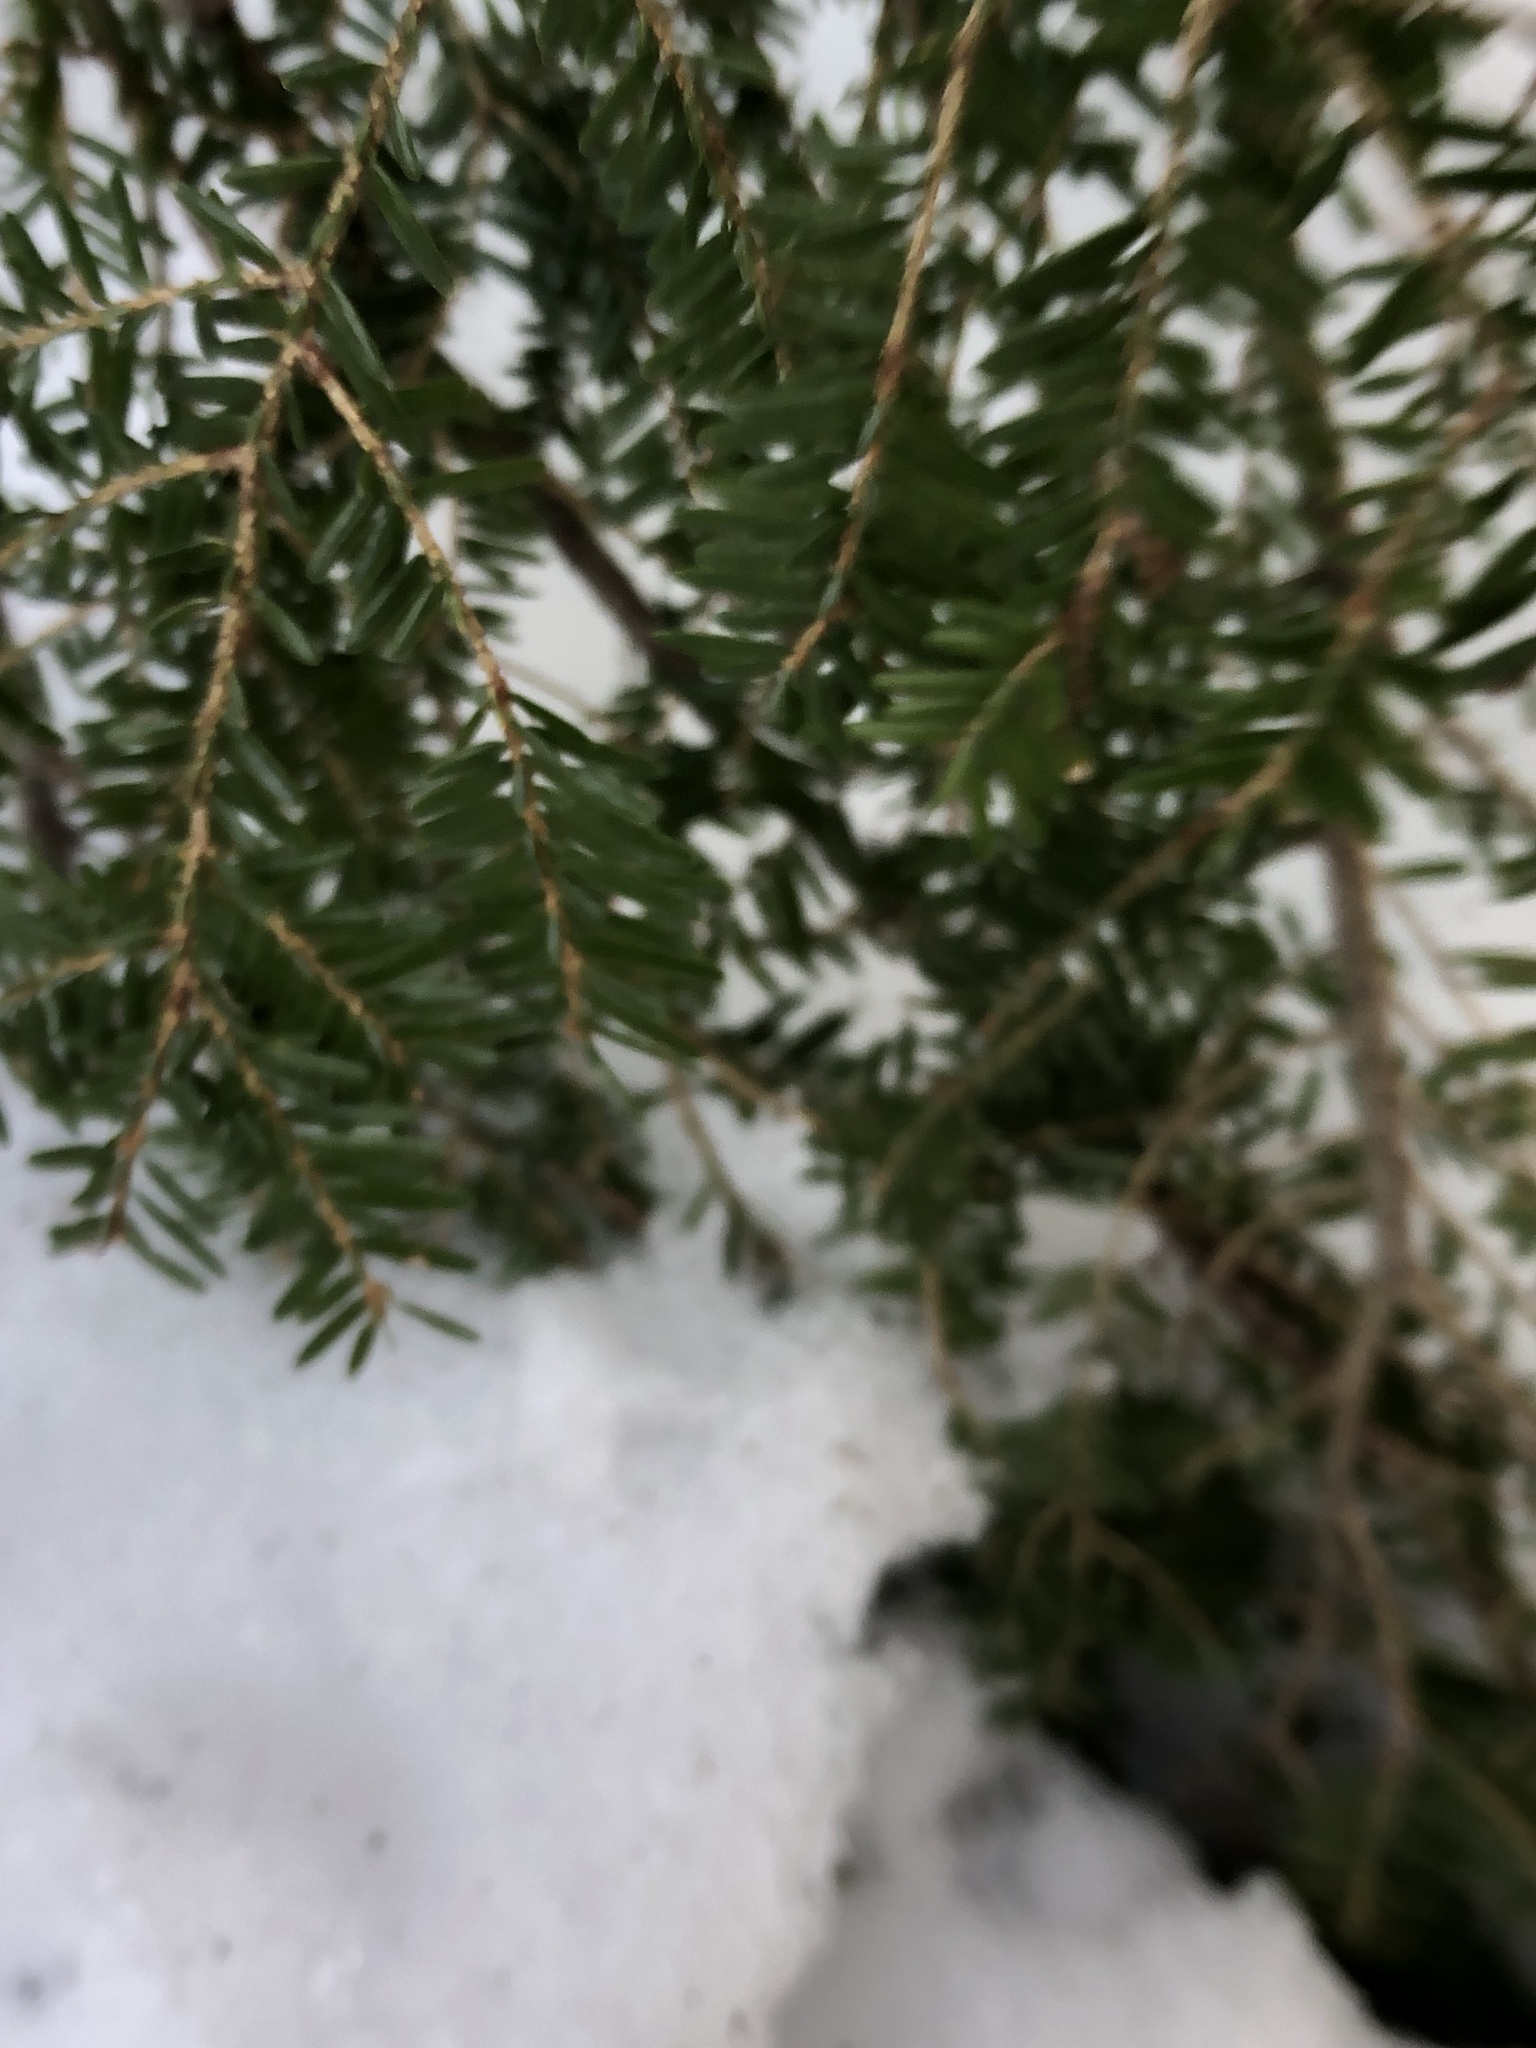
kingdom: Plantae
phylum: Tracheophyta
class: Pinopsida
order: Pinales
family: Pinaceae
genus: Tsuga
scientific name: Tsuga canadensis
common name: Eastern hemlock
